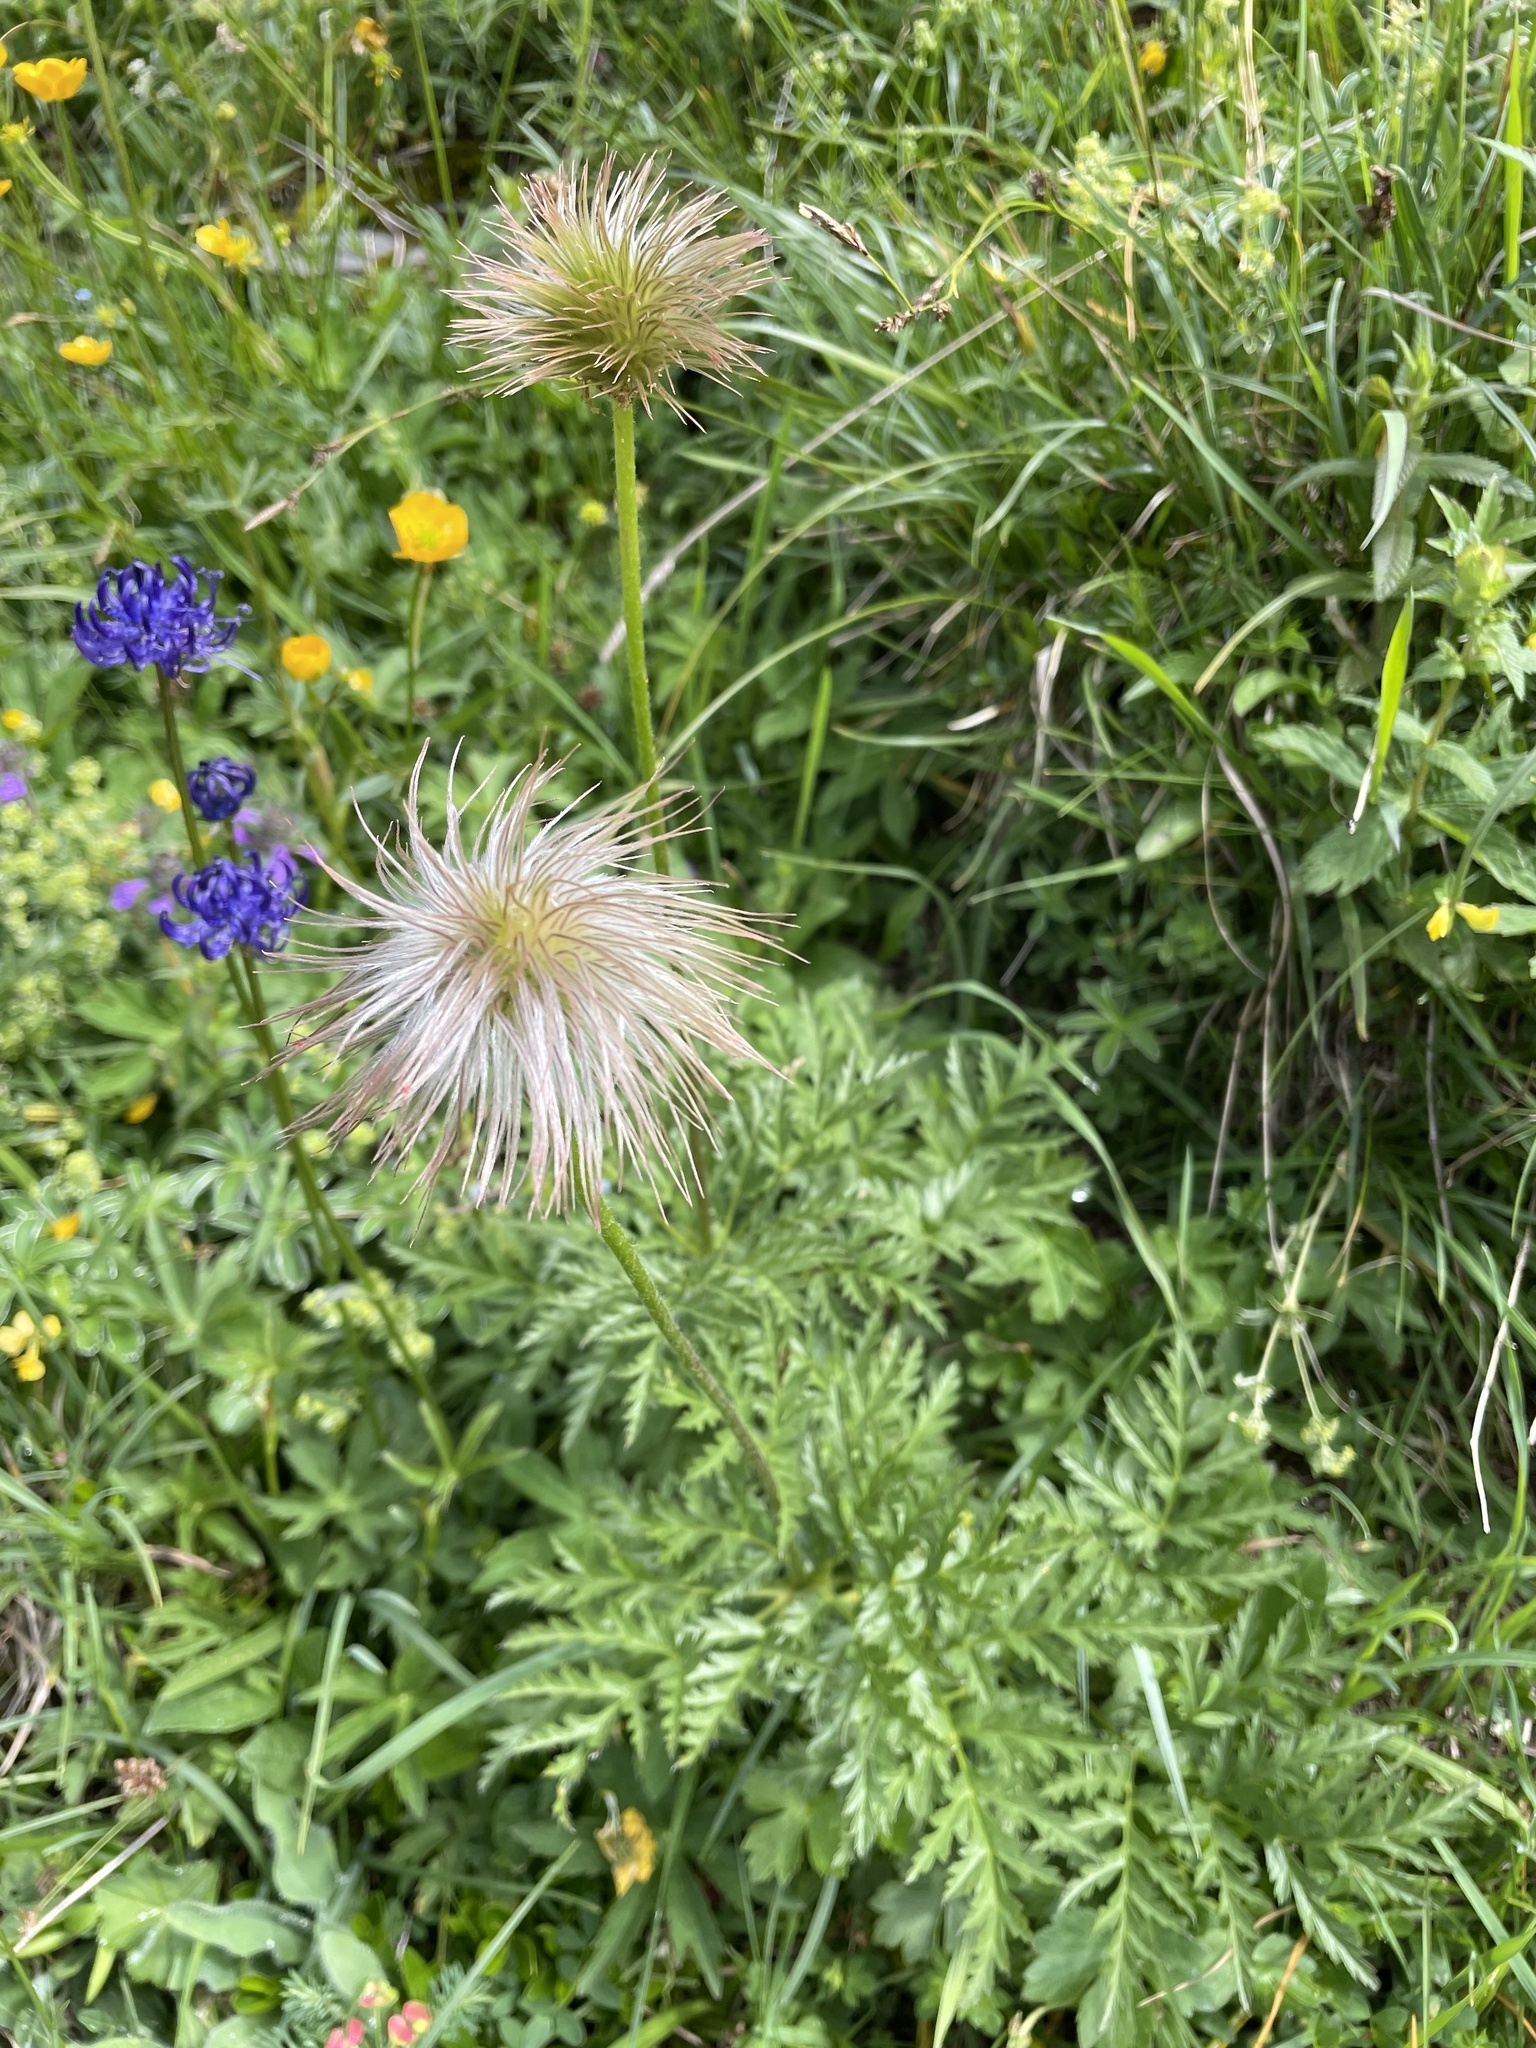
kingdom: Plantae
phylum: Tracheophyta
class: Magnoliopsida
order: Ranunculales
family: Ranunculaceae
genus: Pulsatilla
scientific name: Pulsatilla alpina
